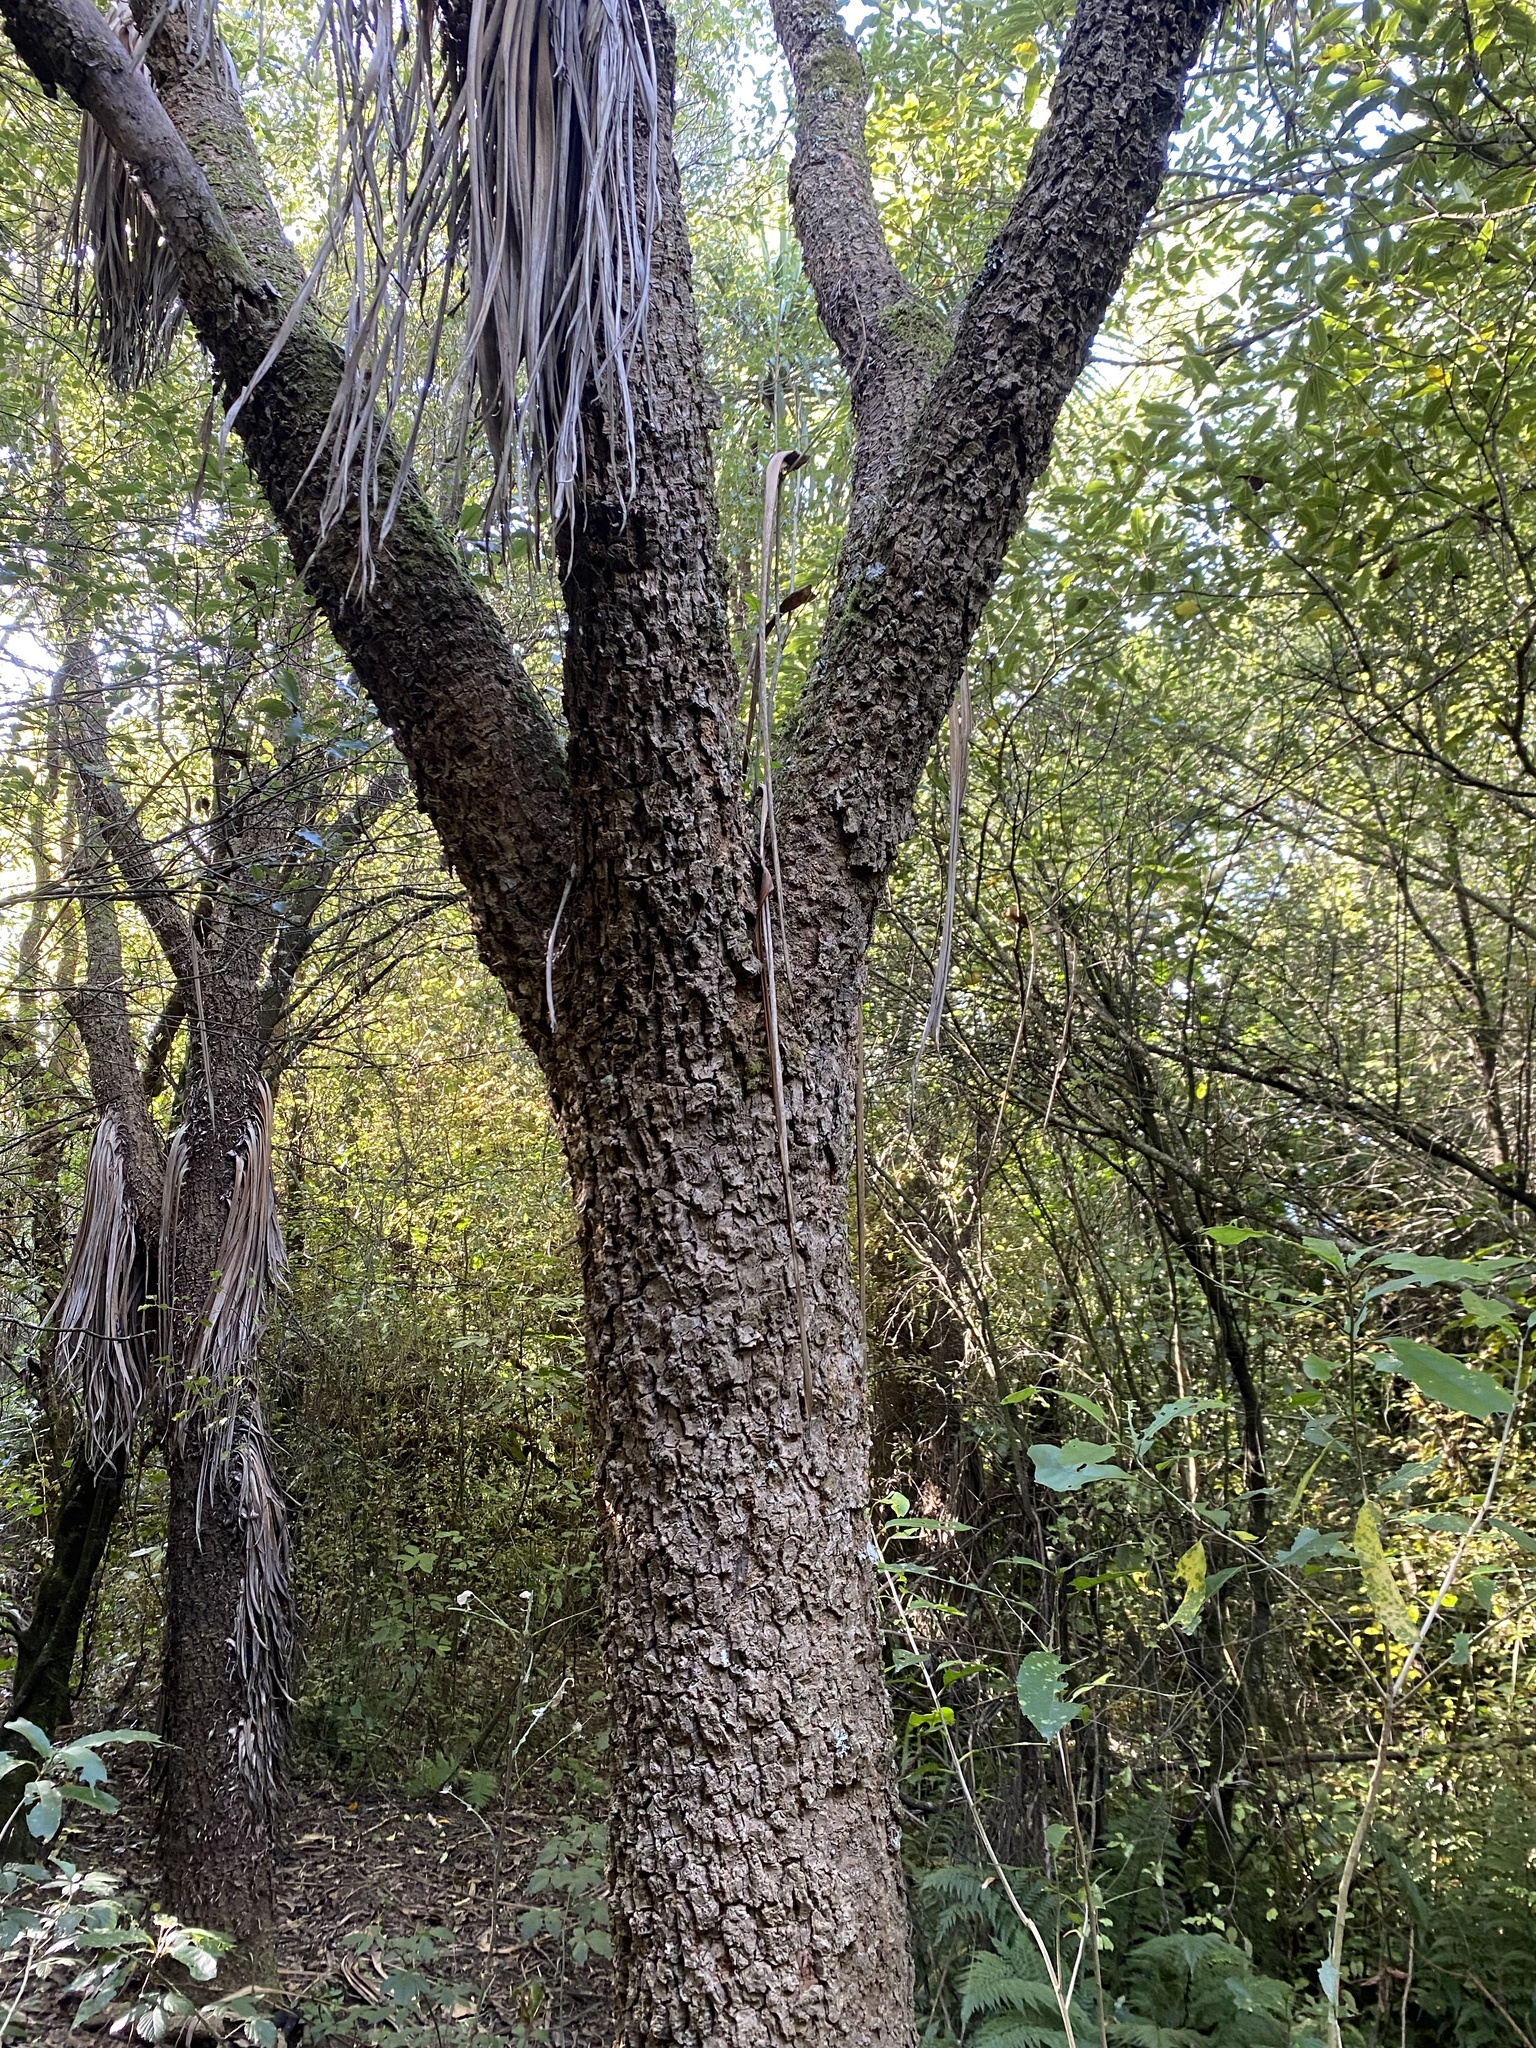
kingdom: Plantae
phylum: Tracheophyta
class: Liliopsida
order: Asparagales
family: Asparagaceae
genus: Cordyline
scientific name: Cordyline australis
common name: Cabbage-palm
